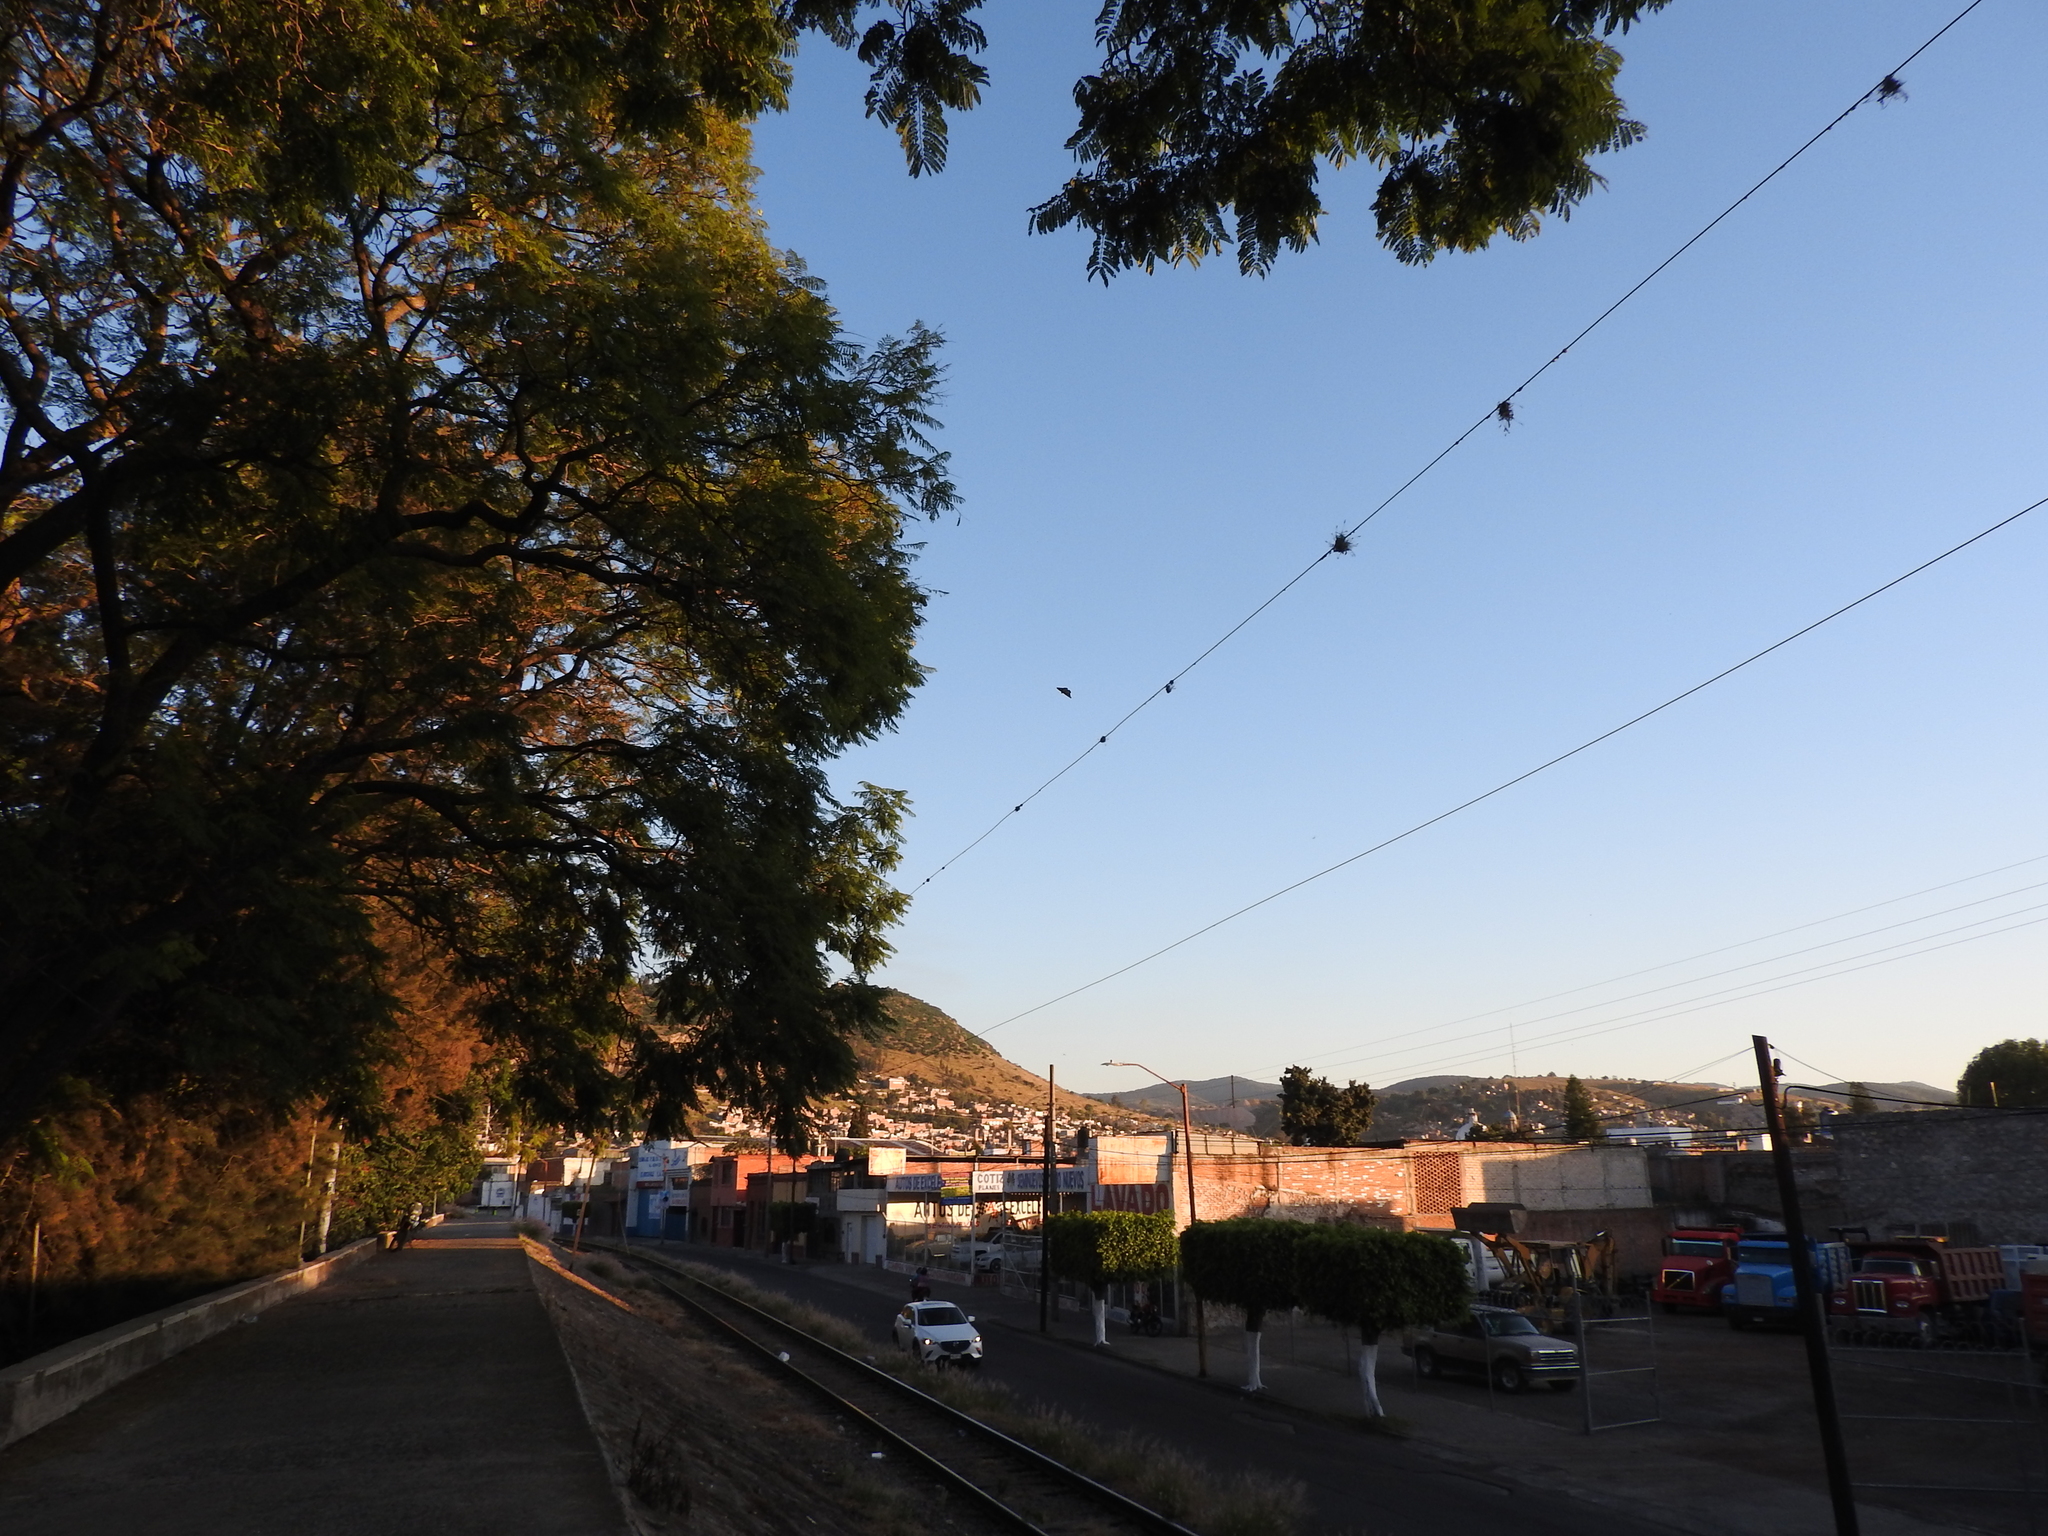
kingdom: Animalia
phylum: Arthropoda
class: Insecta
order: Lepidoptera
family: Nymphalidae
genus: Danaus
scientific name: Danaus plexippus
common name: Monarch
